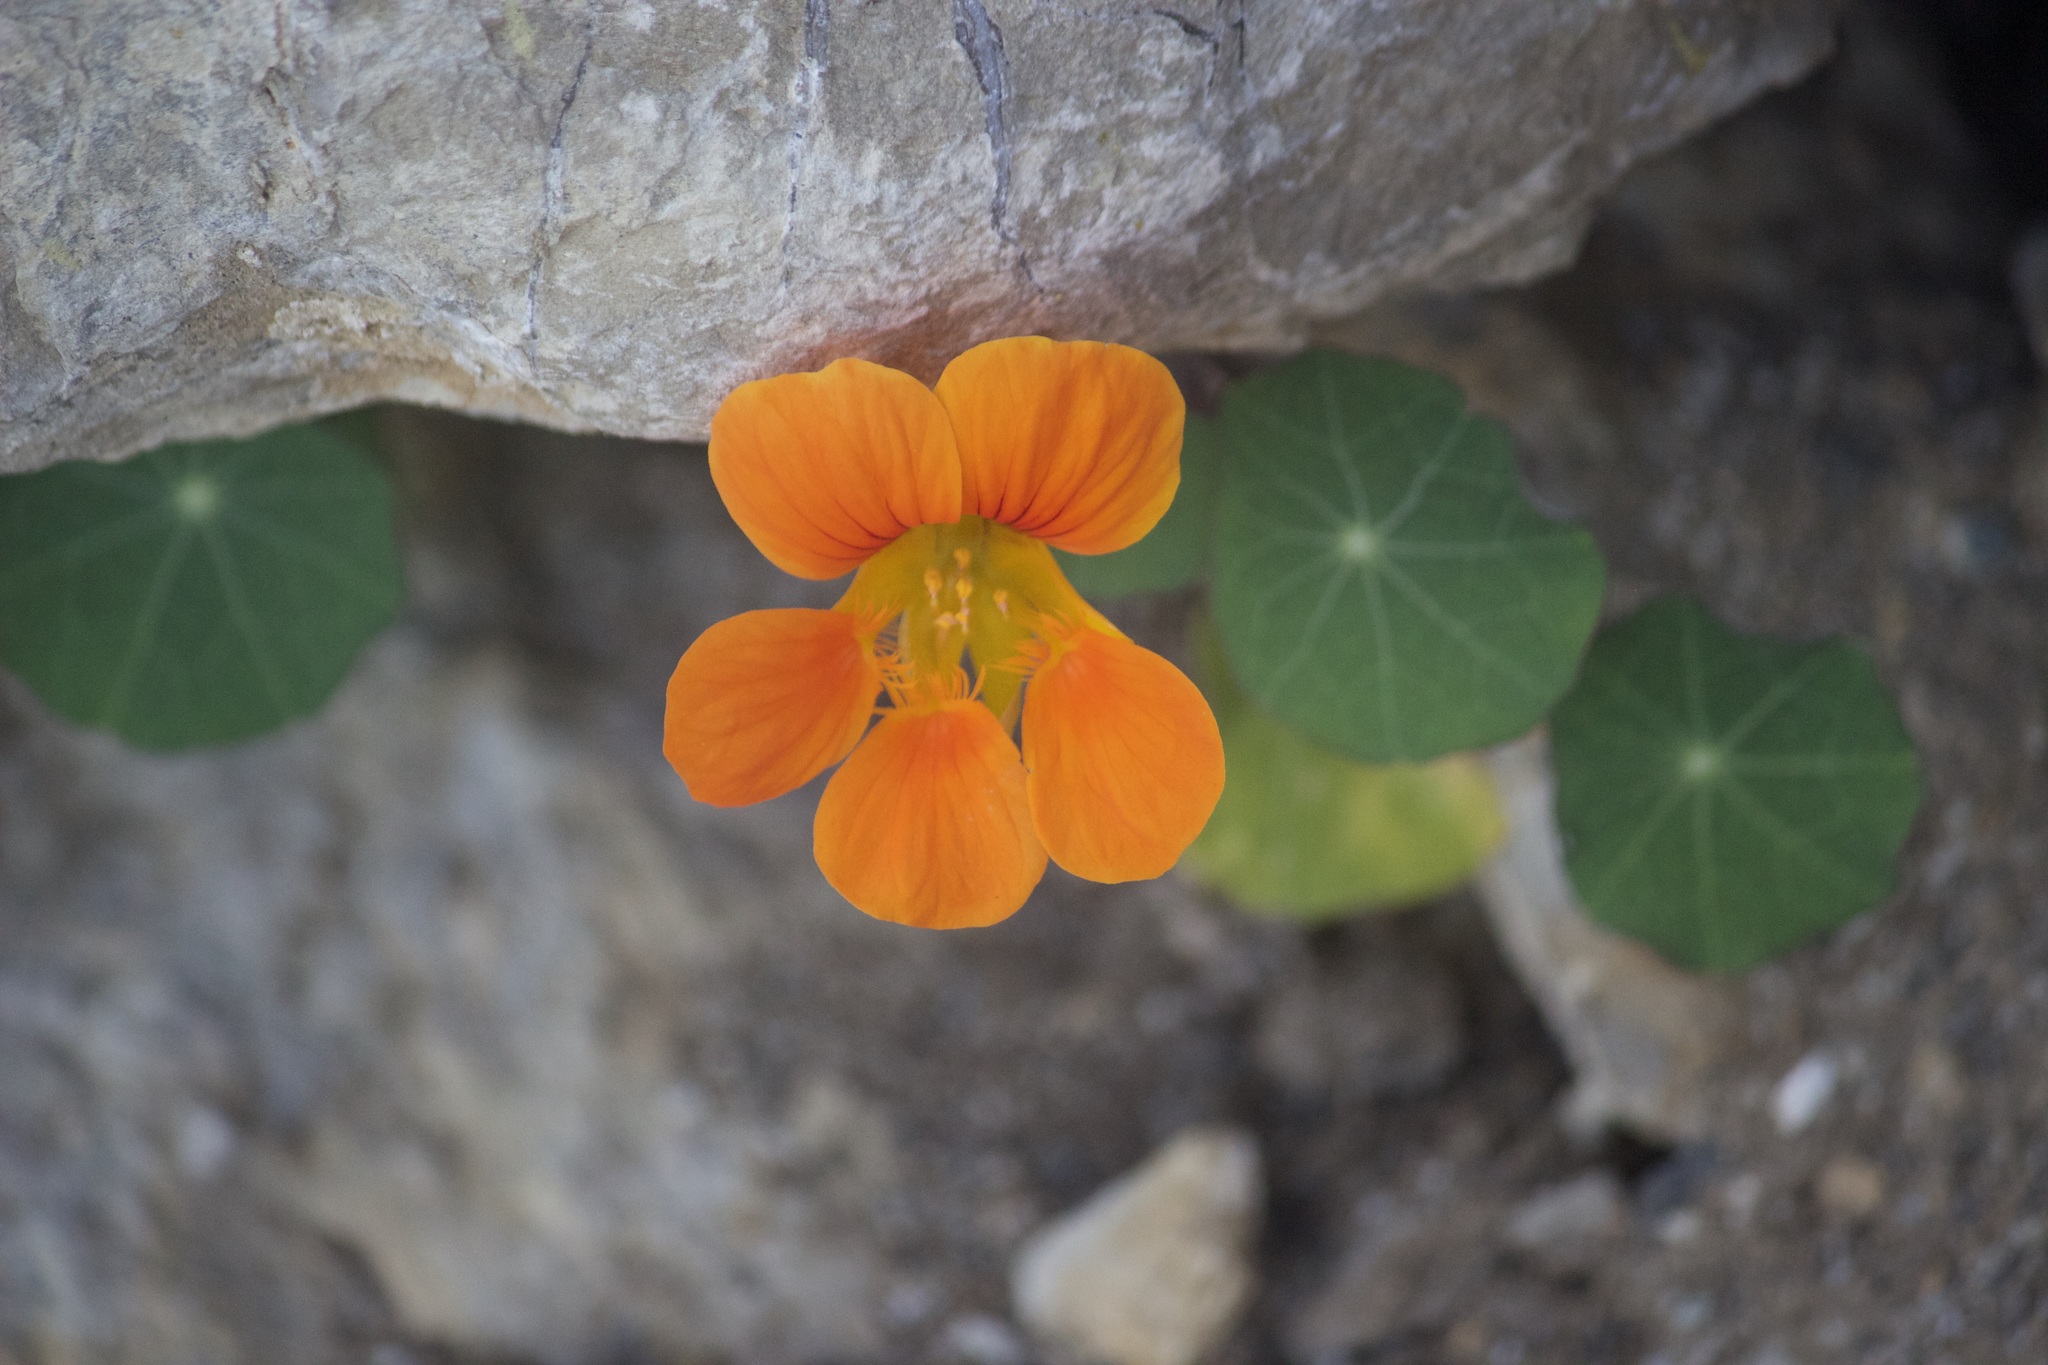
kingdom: Plantae
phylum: Tracheophyta
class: Magnoliopsida
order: Brassicales
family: Tropaeolaceae
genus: Tropaeolum
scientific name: Tropaeolum majus
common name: Nasturtium
